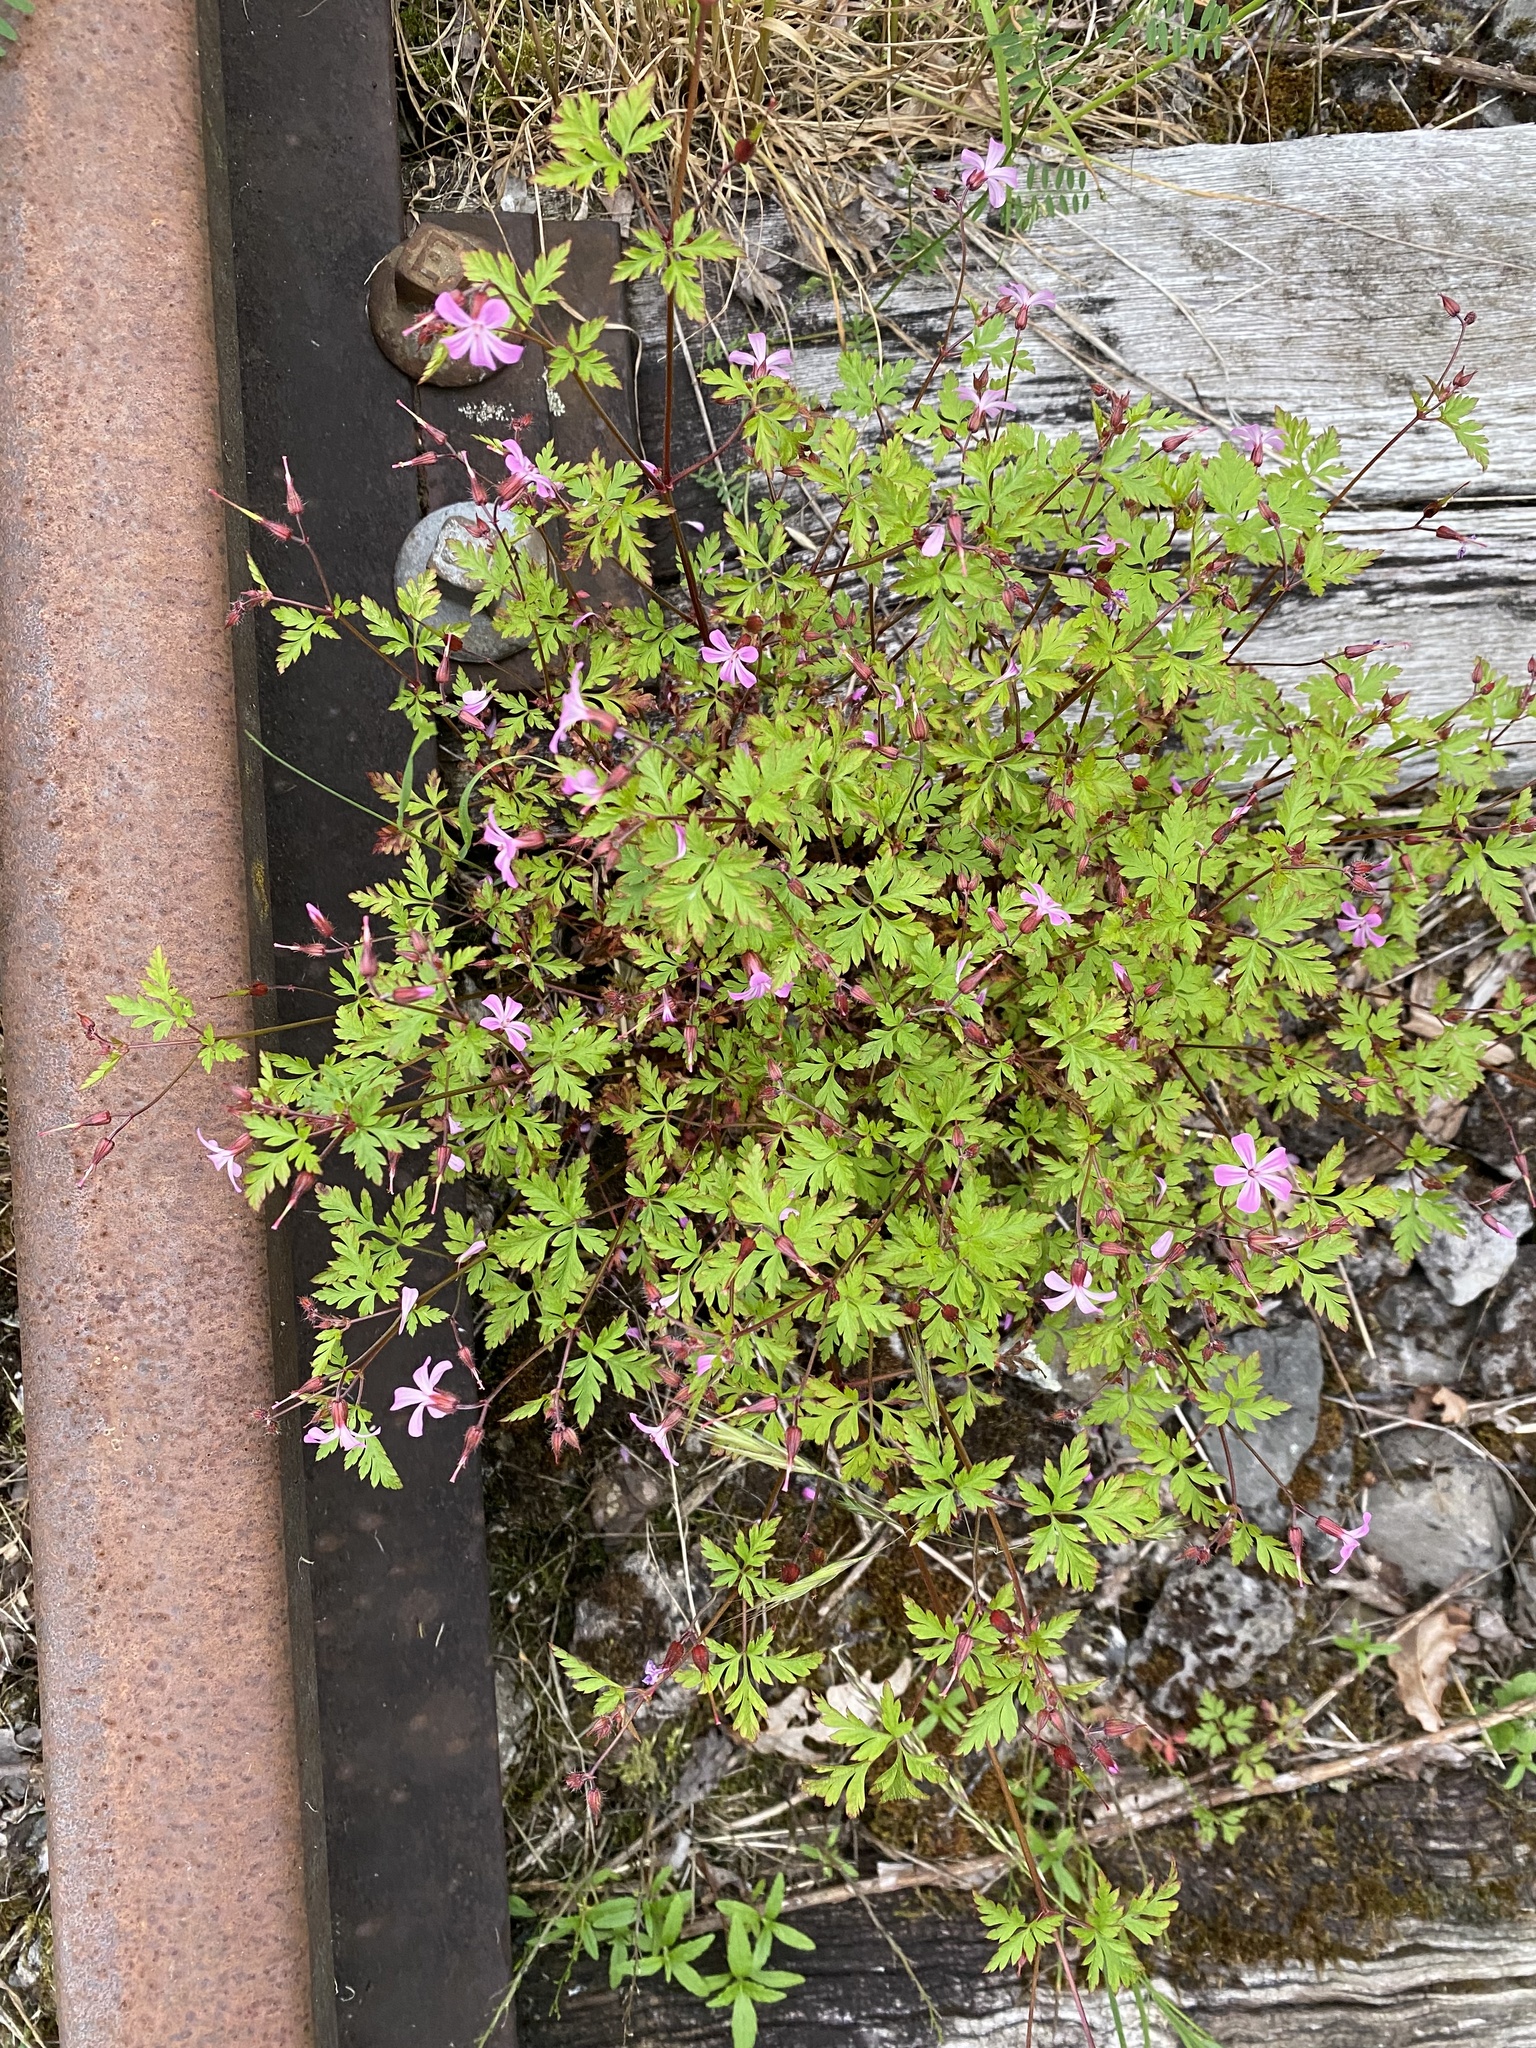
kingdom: Plantae
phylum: Tracheophyta
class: Magnoliopsida
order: Geraniales
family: Geraniaceae
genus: Geranium
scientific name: Geranium robertianum
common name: Herb-robert
